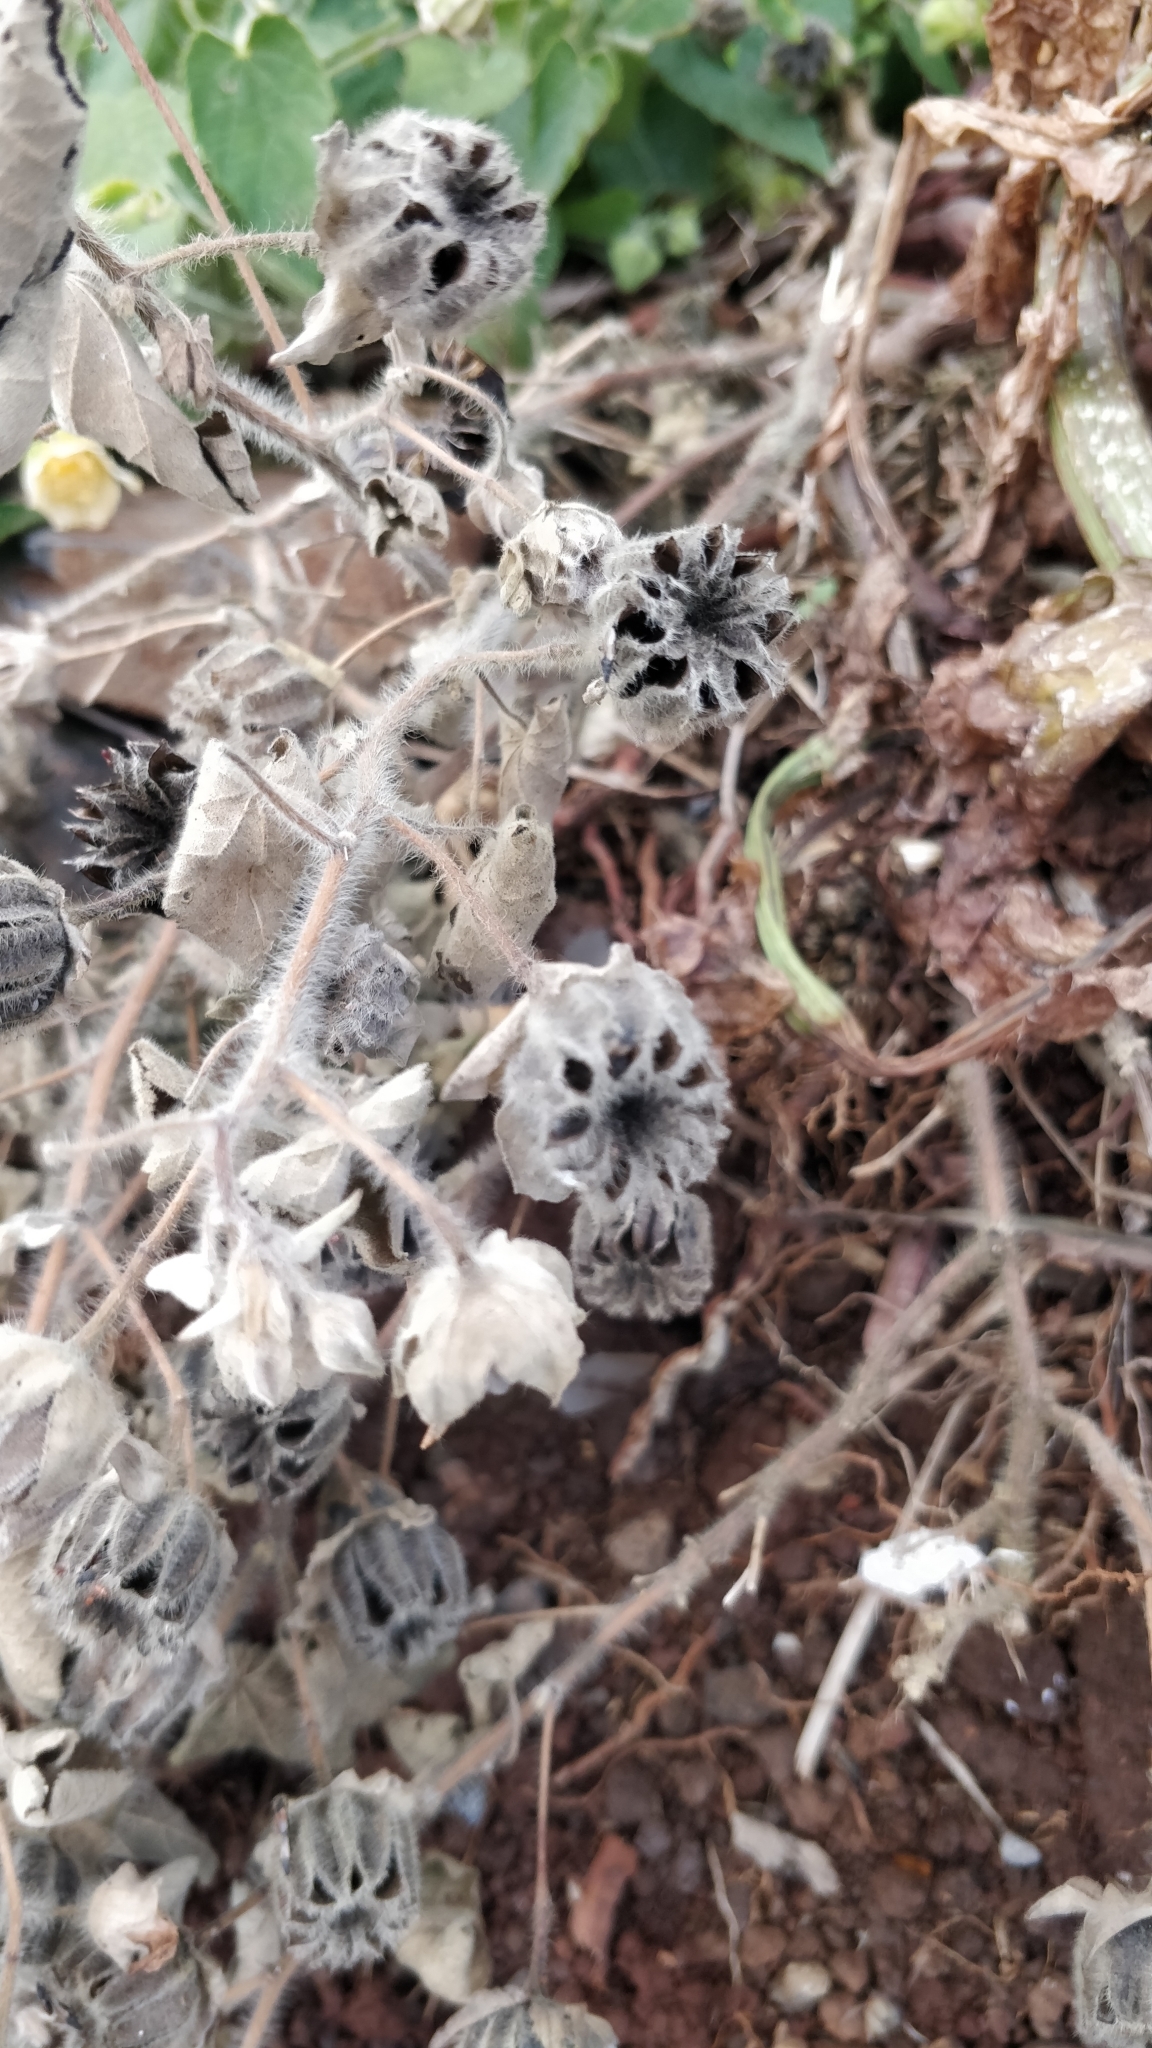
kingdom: Plantae
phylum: Tracheophyta
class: Magnoliopsida
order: Malvales
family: Malvaceae
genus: Abutilon
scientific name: Abutilon grandifolium
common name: Hairy abutilon
